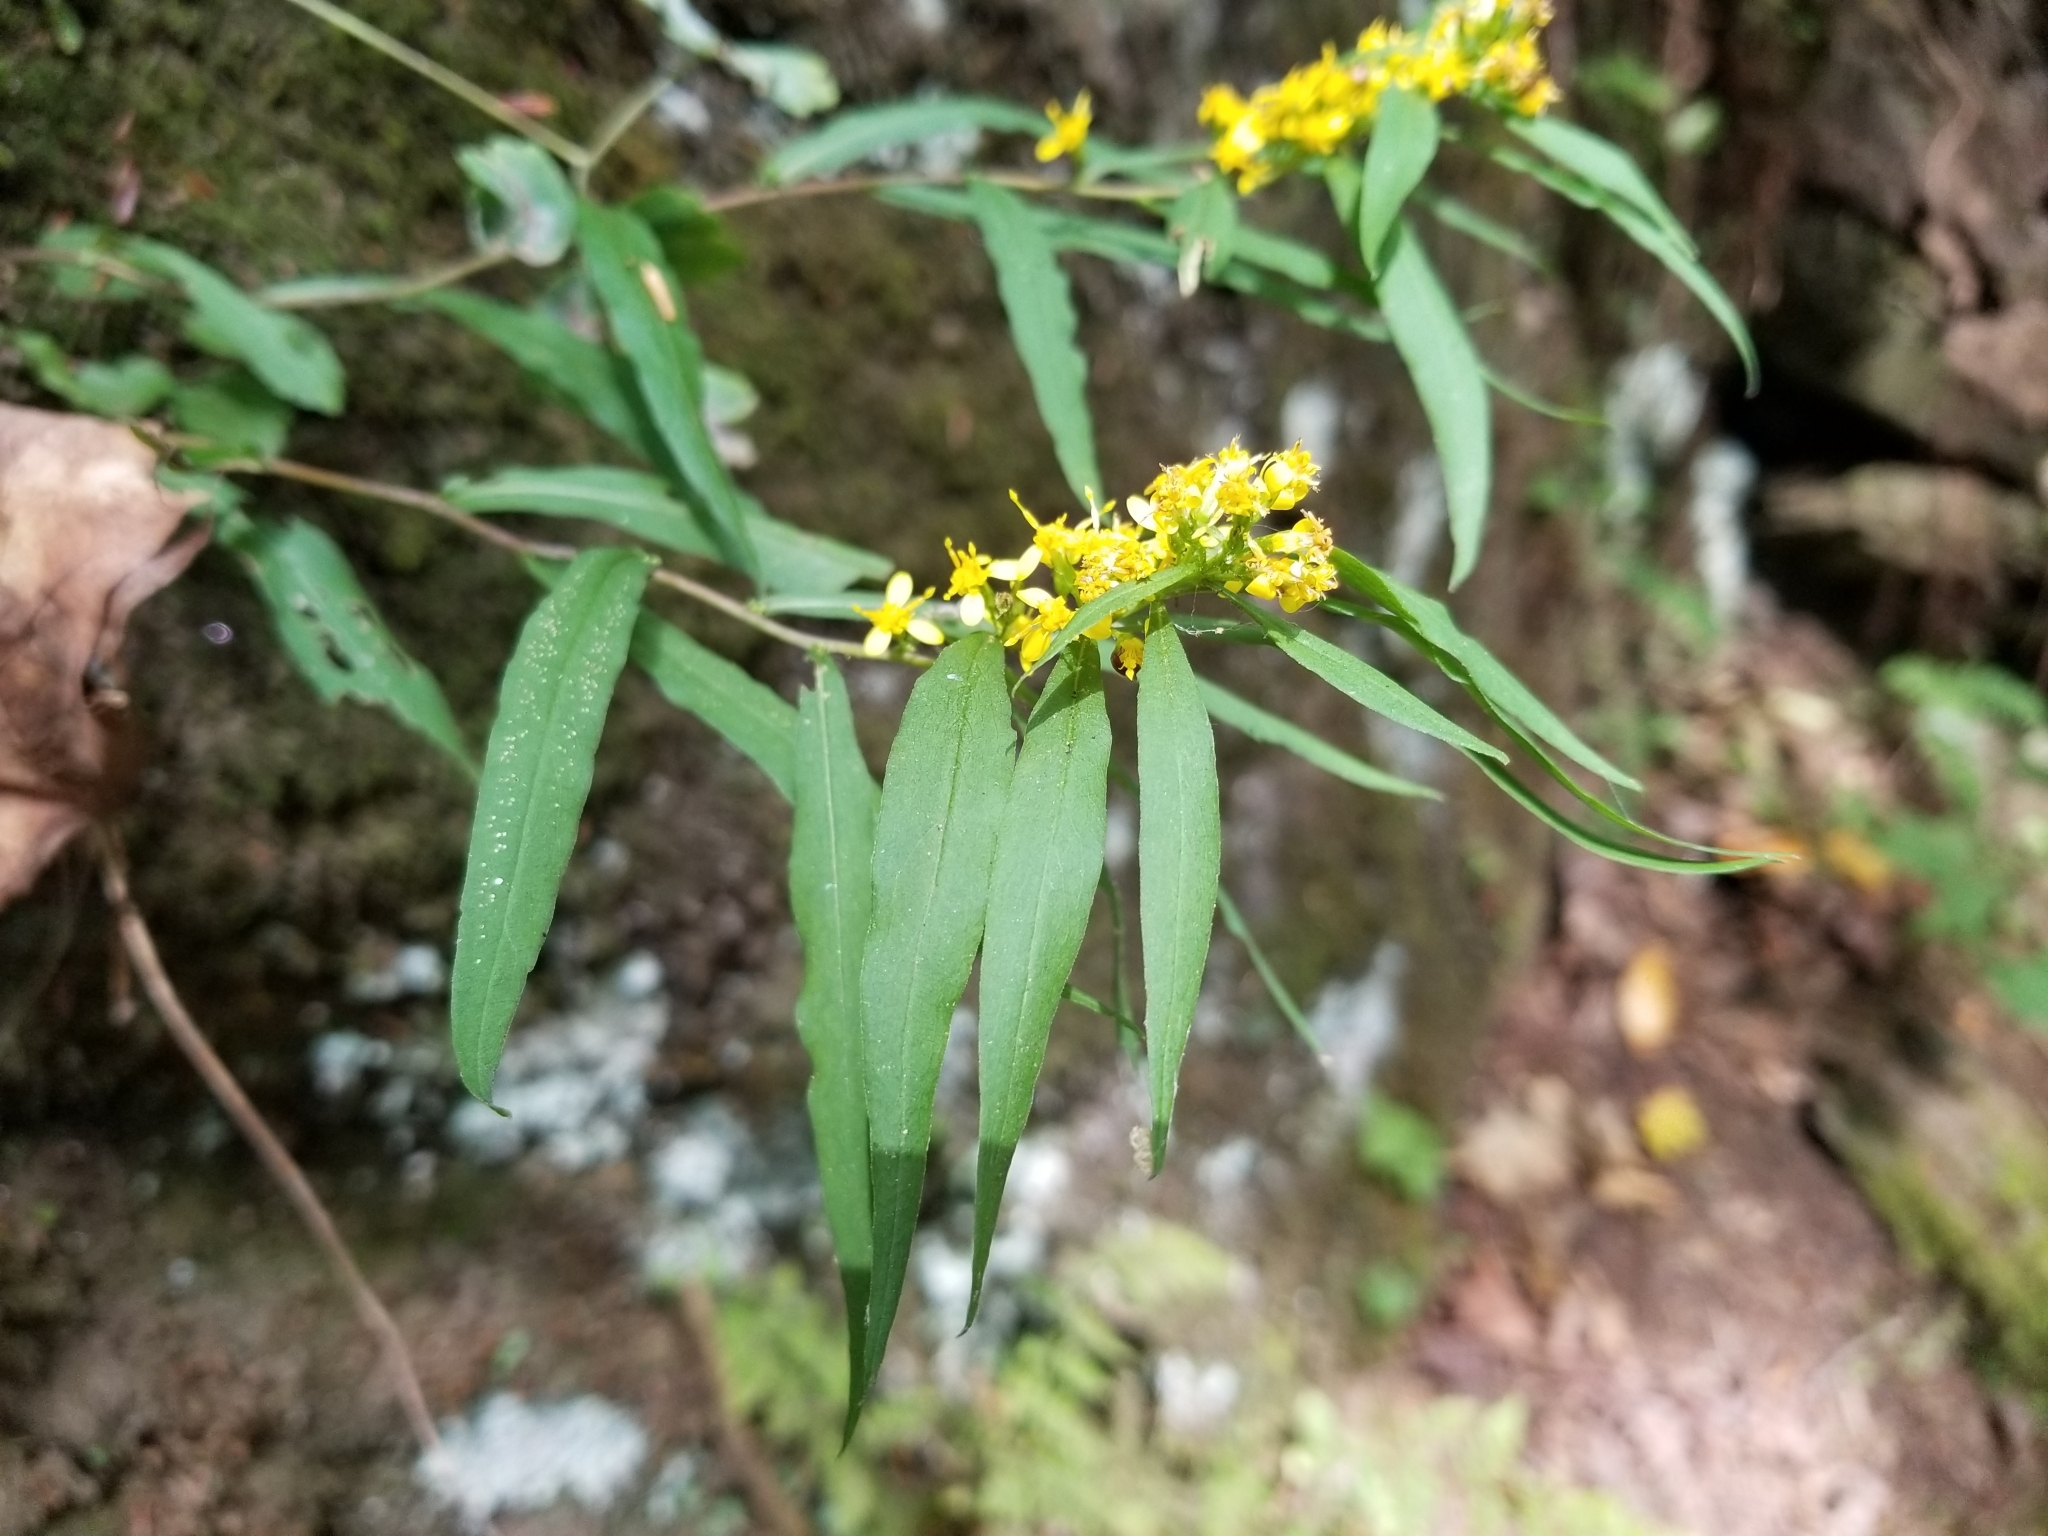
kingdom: Plantae
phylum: Tracheophyta
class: Magnoliopsida
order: Asterales
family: Asteraceae
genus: Solidago
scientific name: Solidago caesia
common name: Woodland goldenrod
